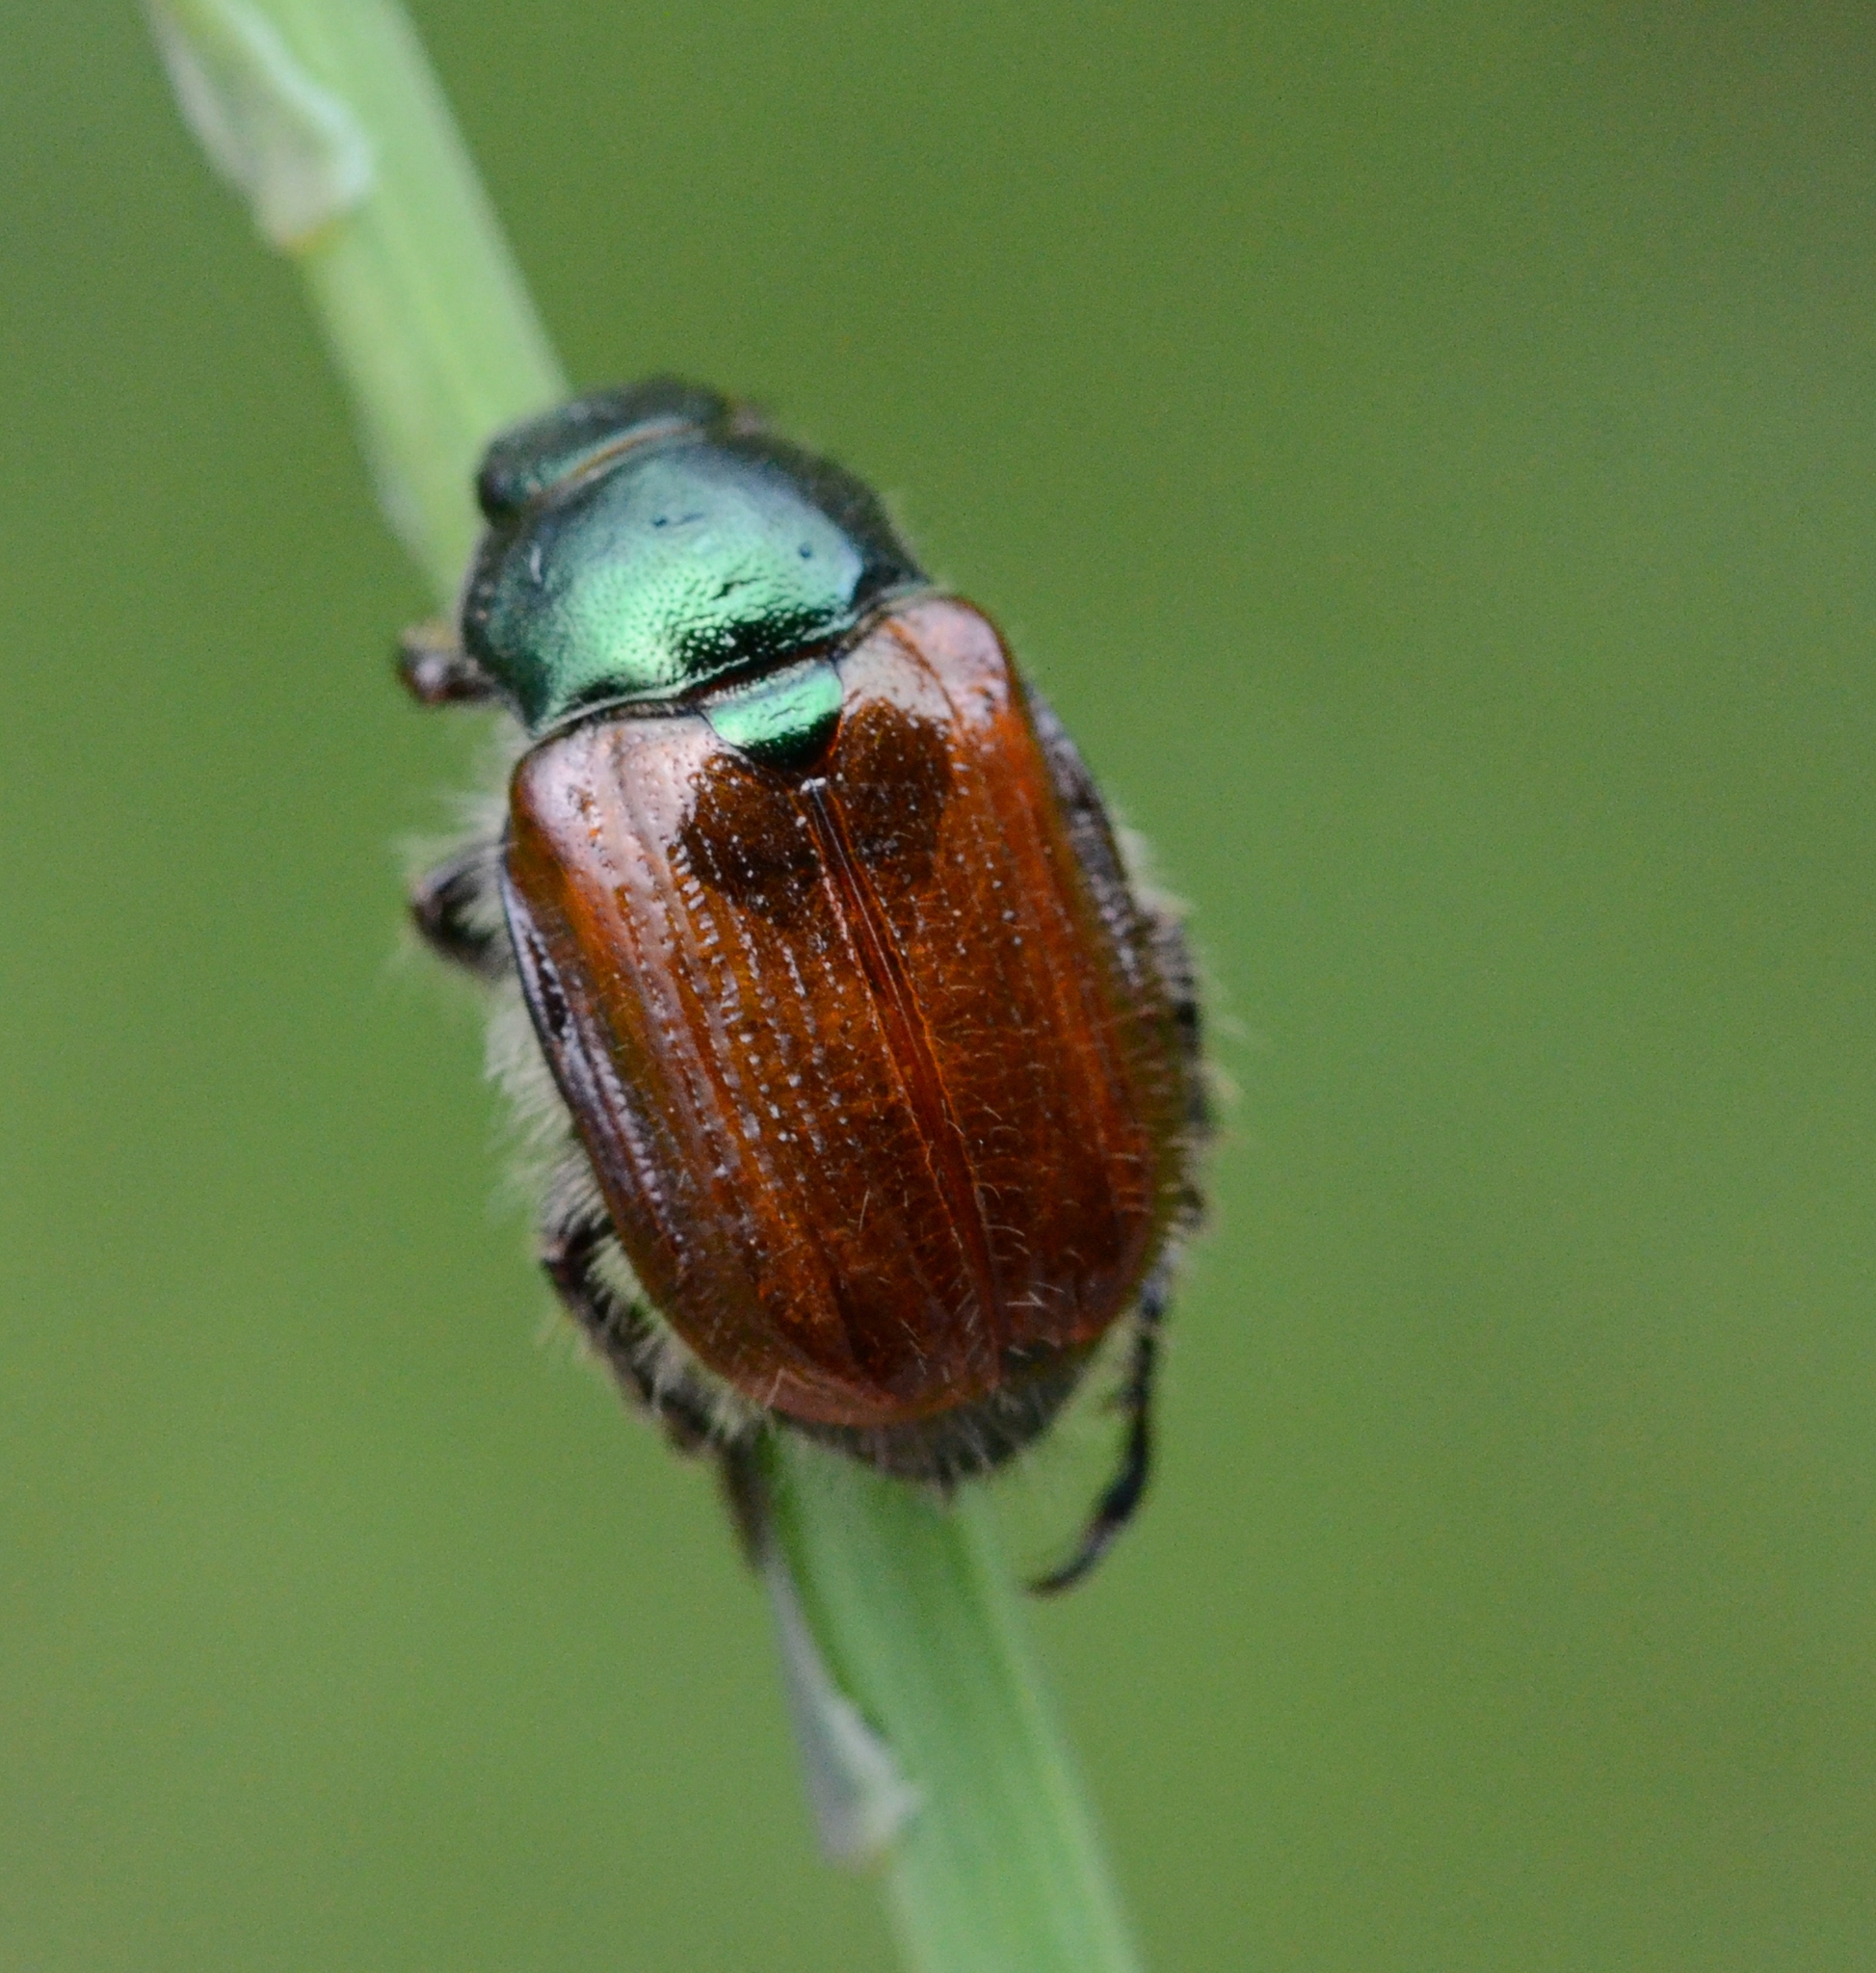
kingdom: Animalia
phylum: Arthropoda
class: Insecta
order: Coleoptera
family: Scarabaeidae
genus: Phyllopertha
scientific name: Phyllopertha horticola
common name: Garden chafer
